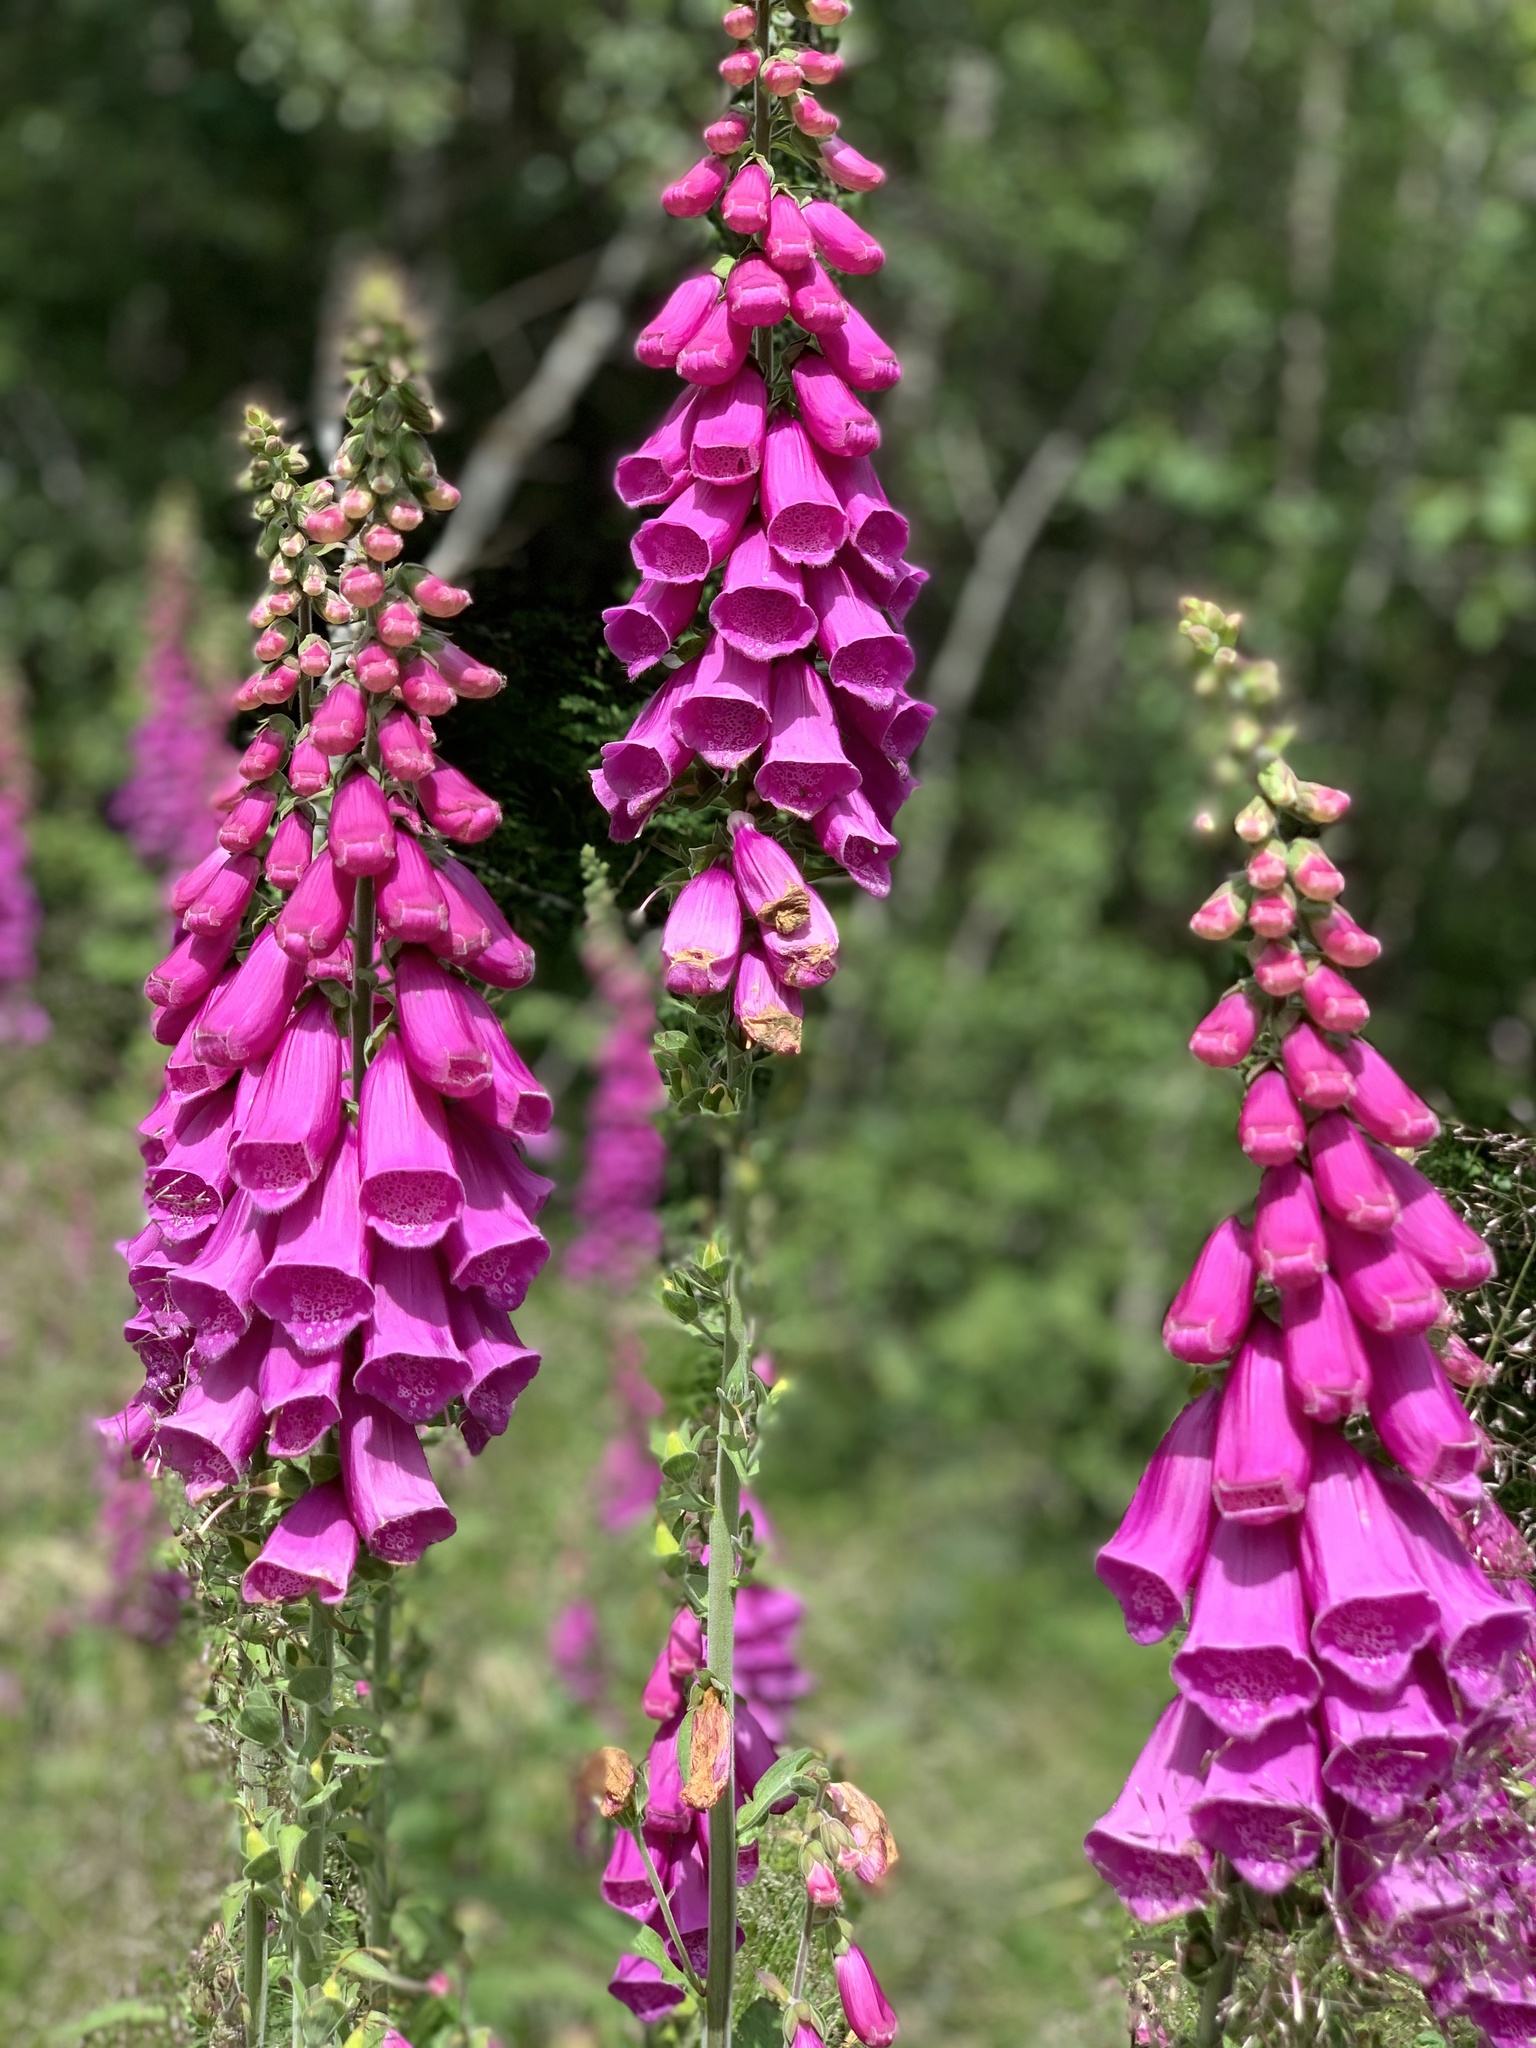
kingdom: Plantae
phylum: Tracheophyta
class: Magnoliopsida
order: Lamiales
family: Plantaginaceae
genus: Digitalis
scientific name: Digitalis purpurea
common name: Foxglove
